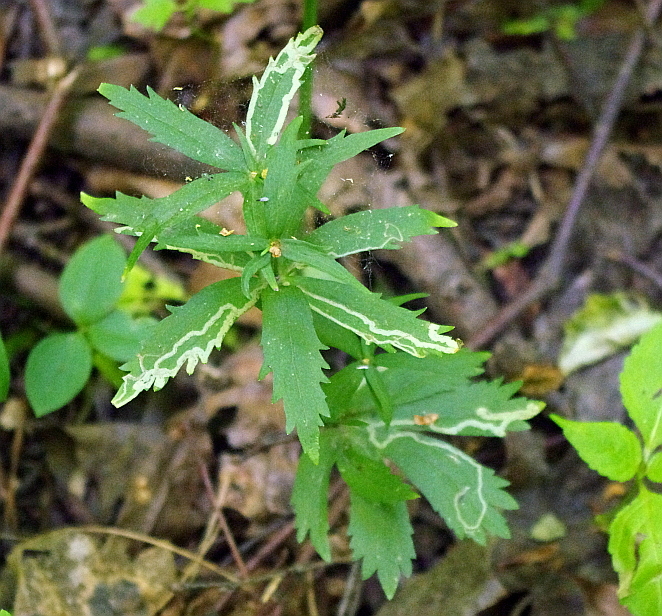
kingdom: Plantae
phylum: Tracheophyta
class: Magnoliopsida
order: Ranunculales
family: Ranunculaceae
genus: Ranunculus
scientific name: Ranunculus cassubicus
